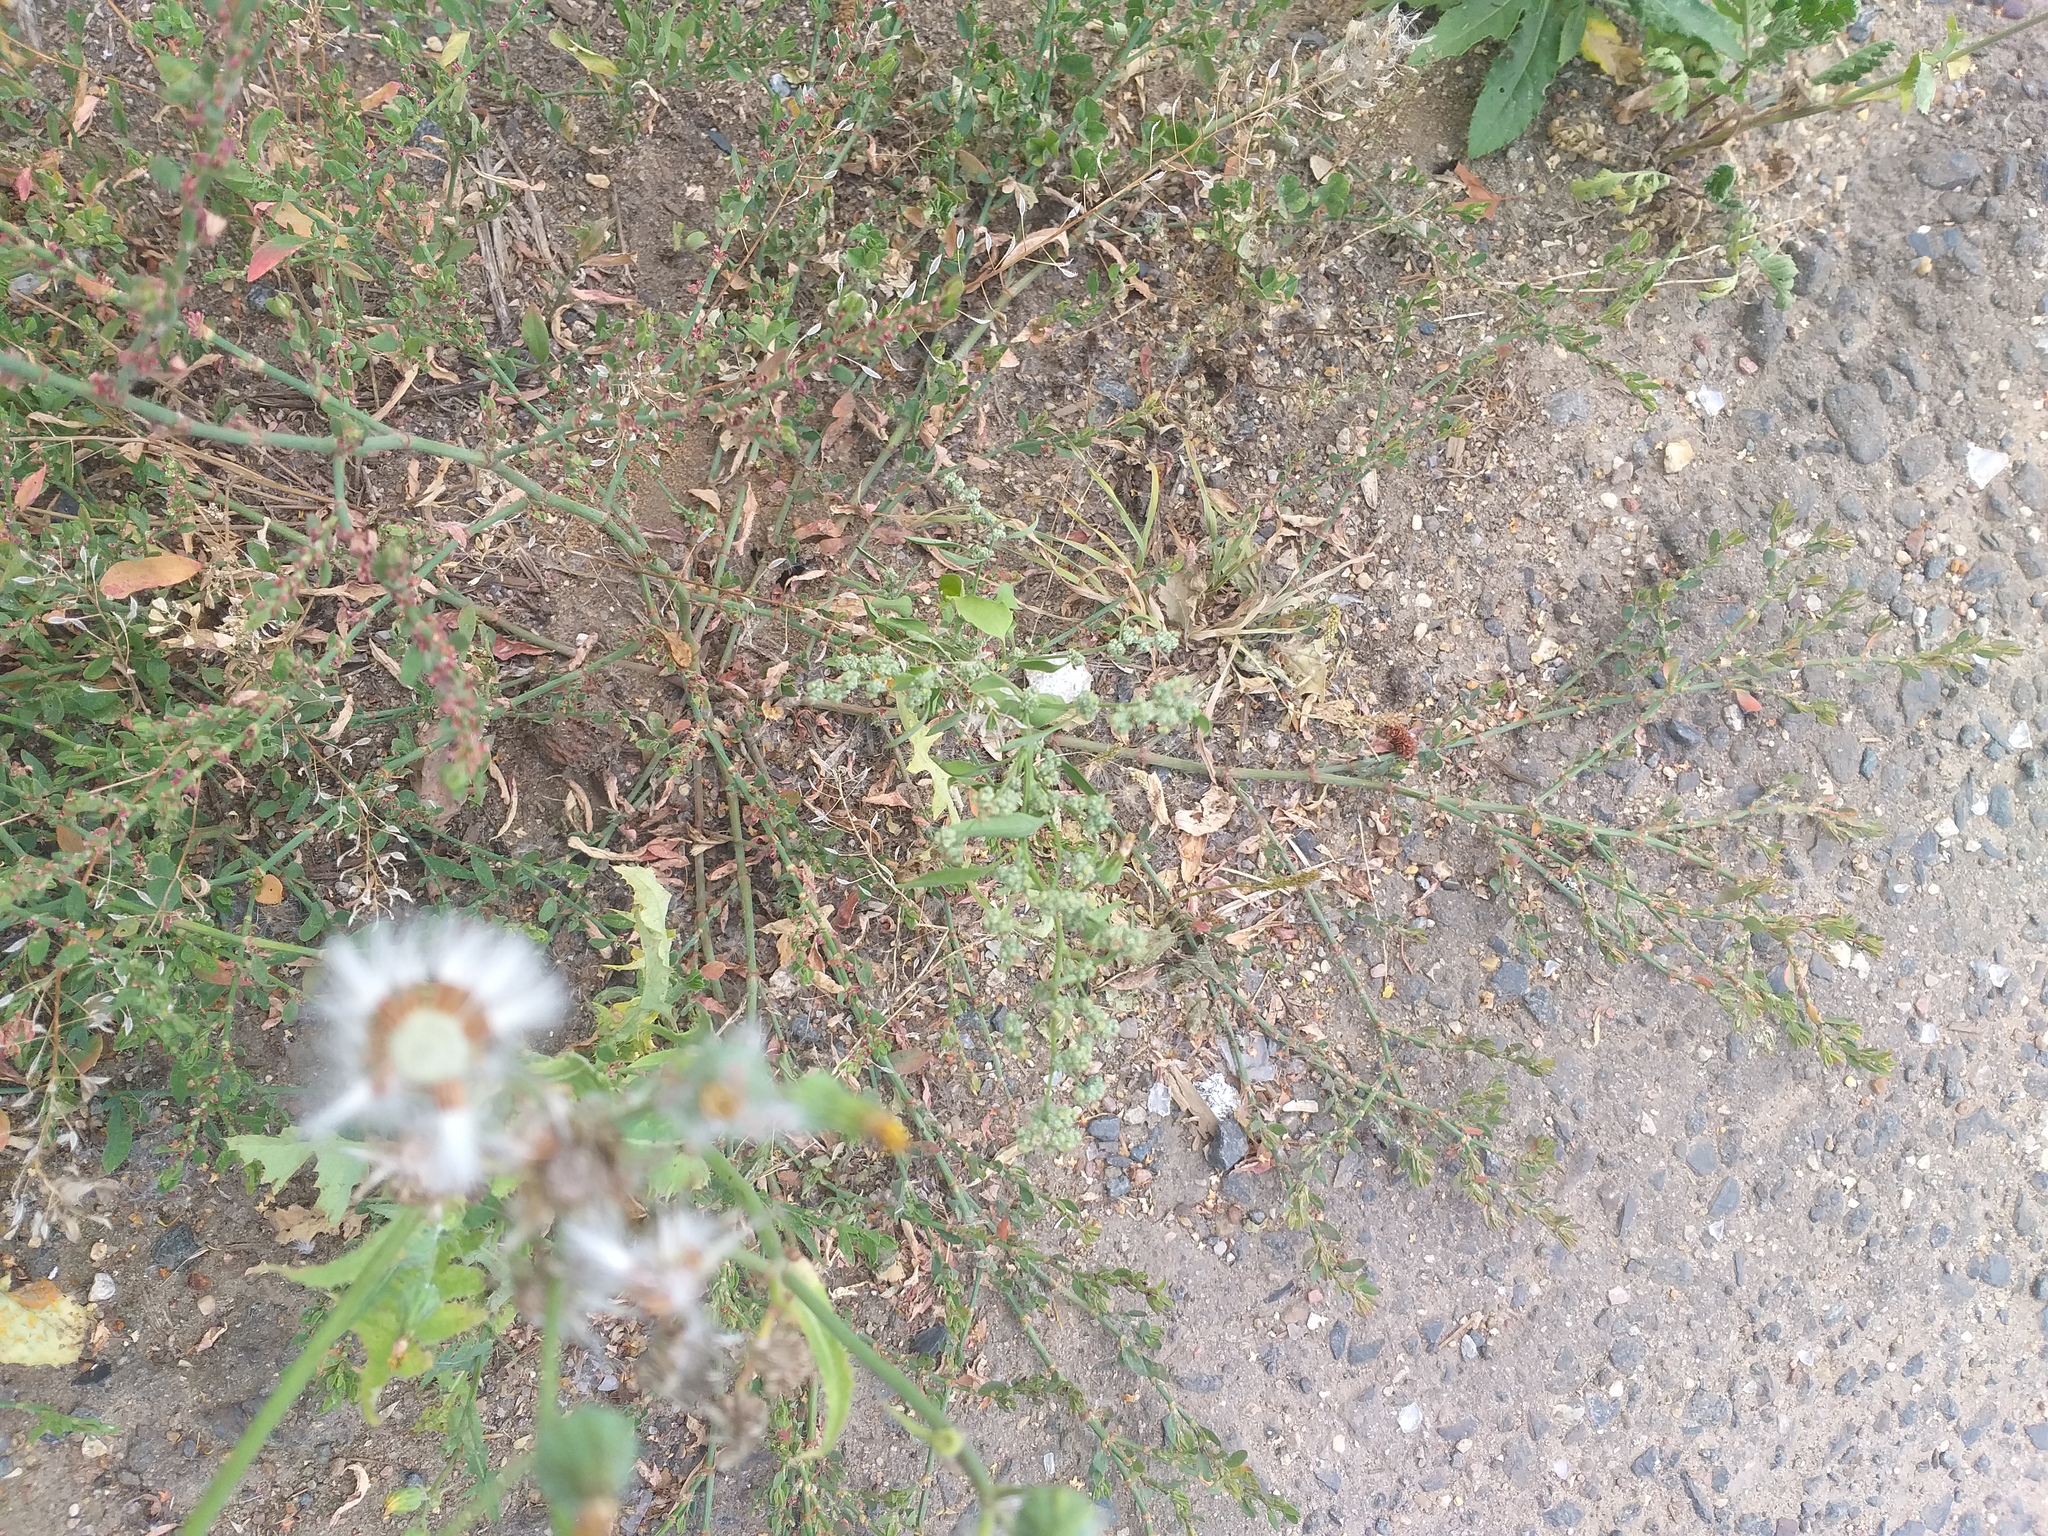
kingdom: Plantae
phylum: Tracheophyta
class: Magnoliopsida
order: Caryophyllales
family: Amaranthaceae
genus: Chenopodium
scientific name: Chenopodium album
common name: Fat-hen
